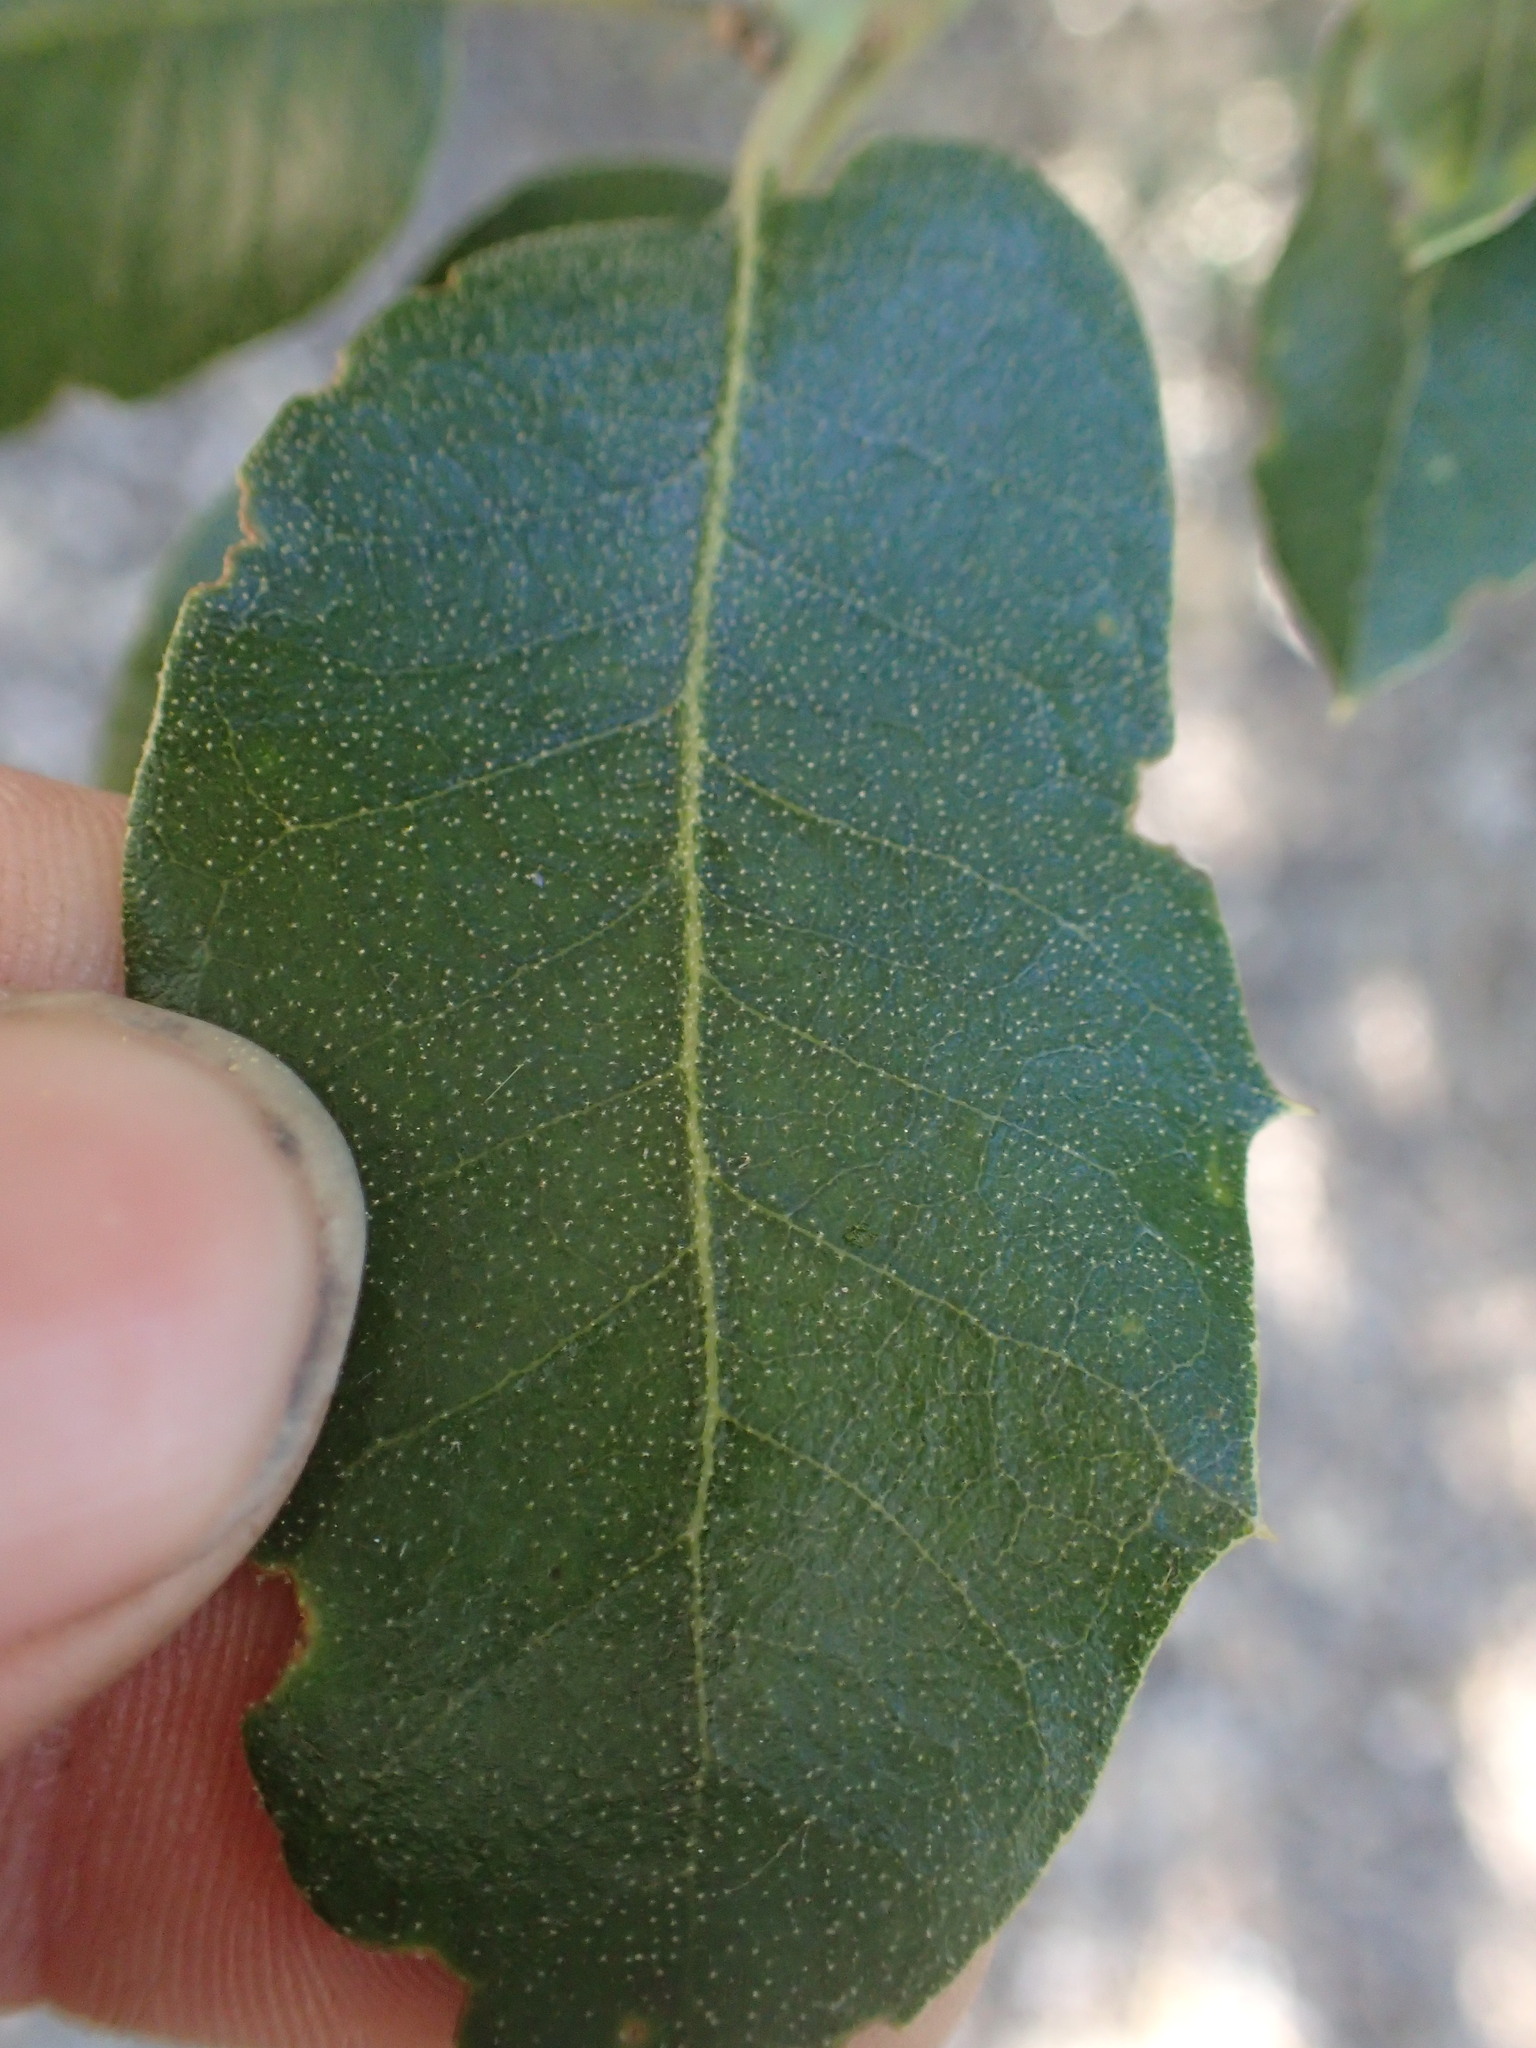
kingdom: Plantae
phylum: Tracheophyta
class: Magnoliopsida
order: Fagales
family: Fagaceae
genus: Quercus
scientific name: Quercus chrysolepis
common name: Canyon live oak
